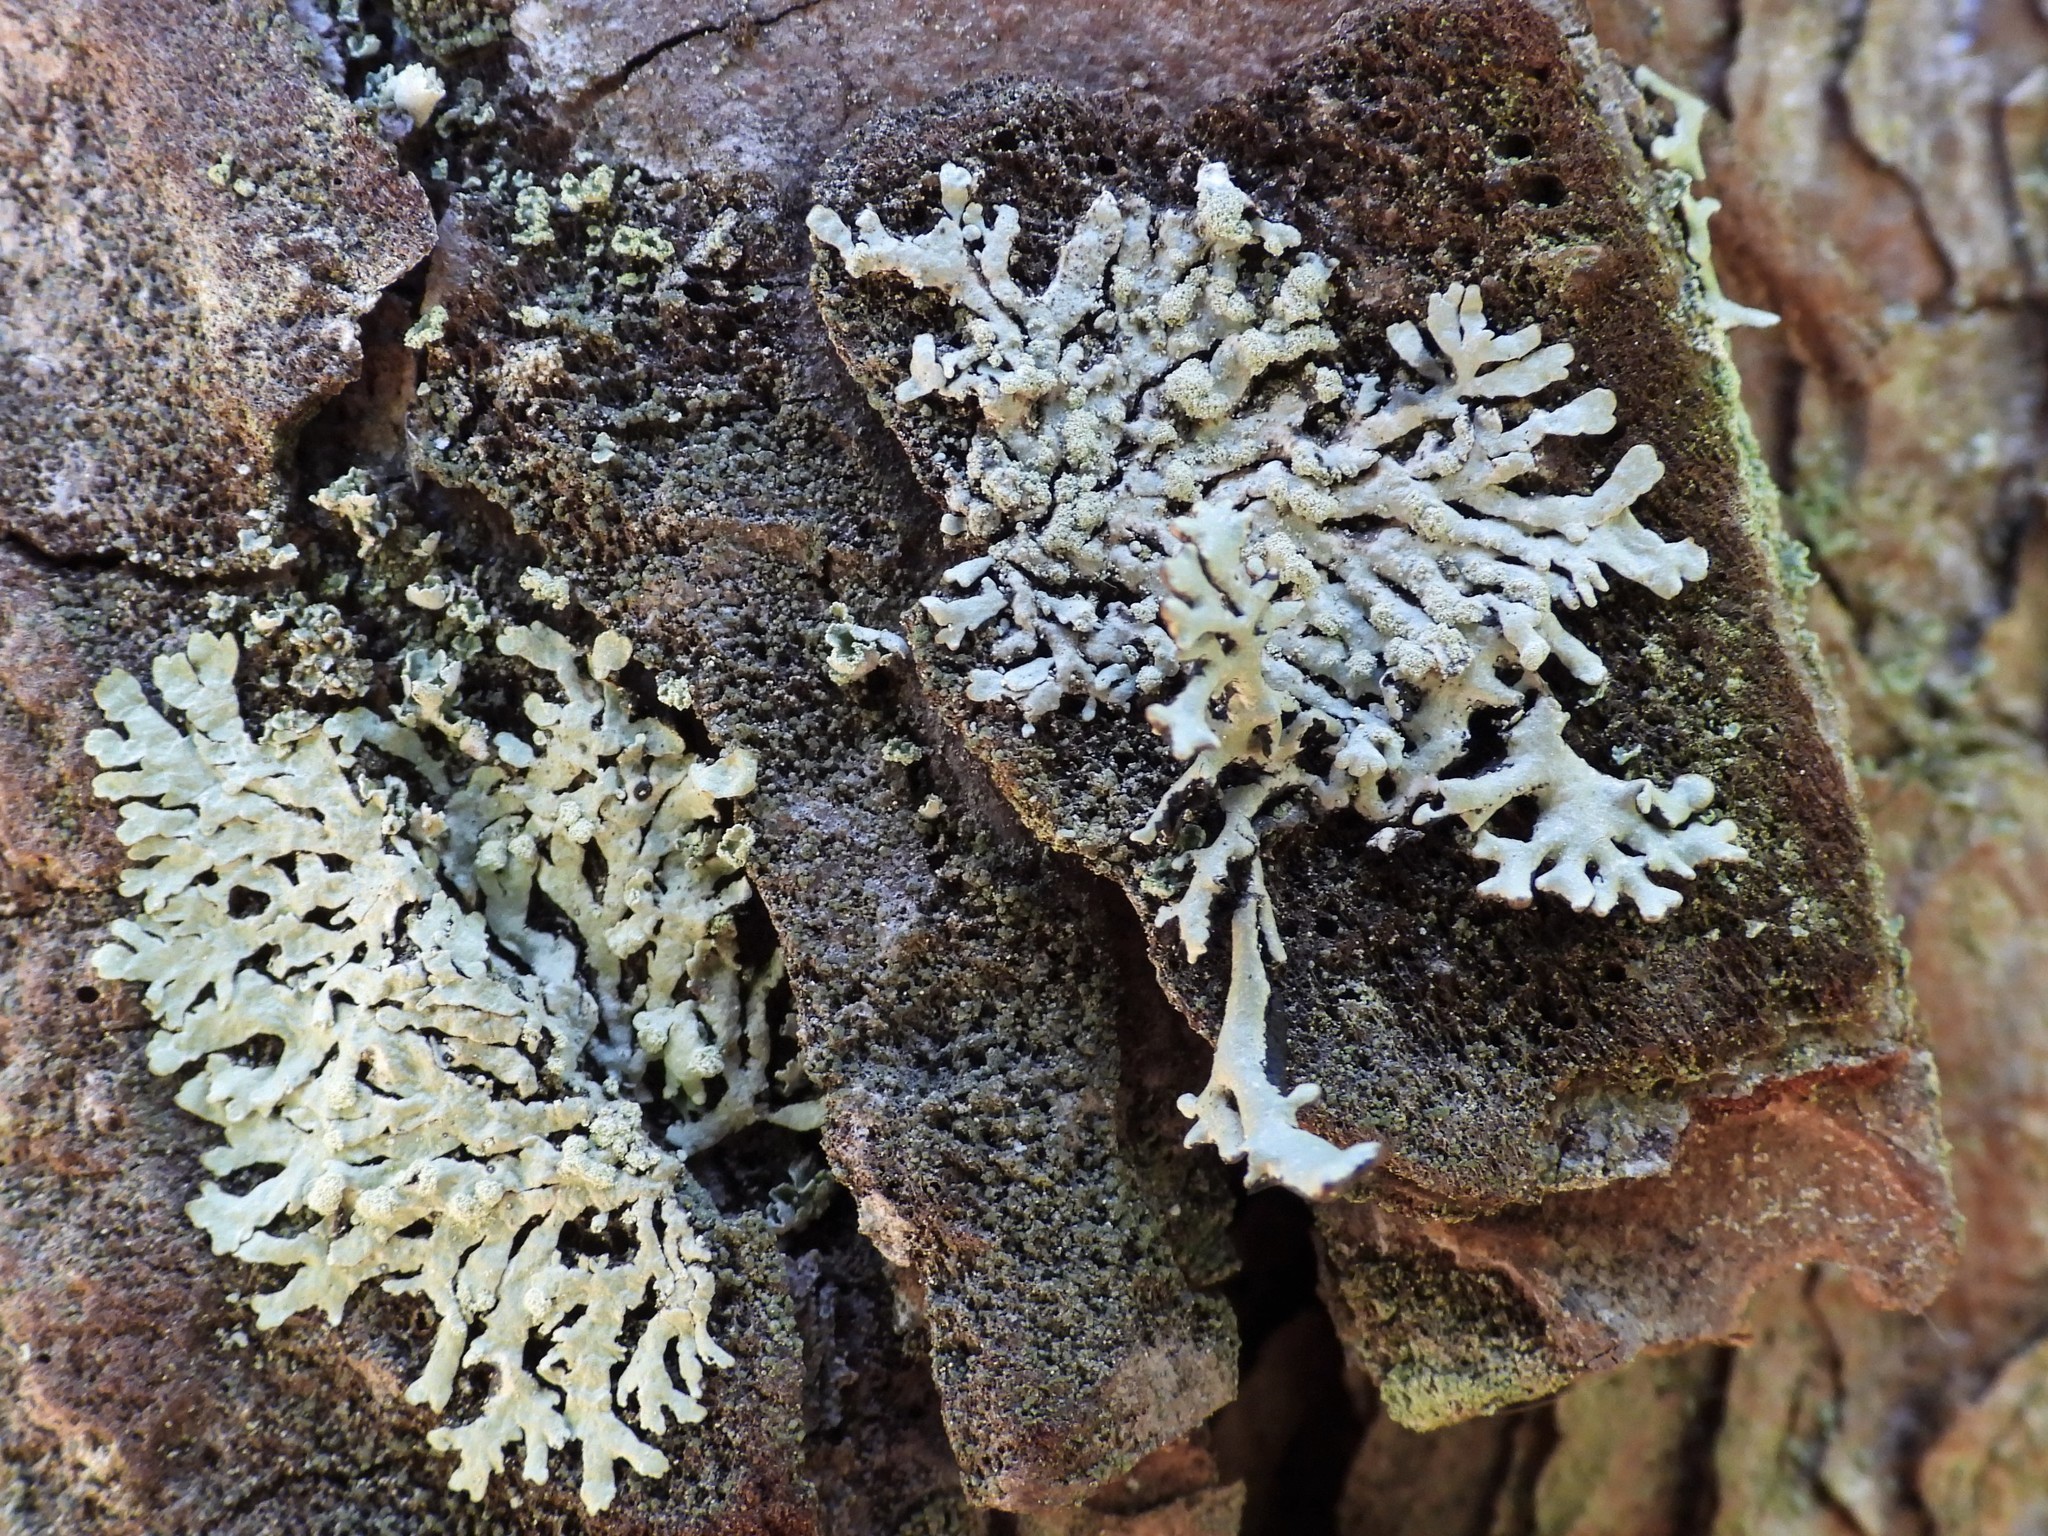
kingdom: Fungi
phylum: Ascomycota
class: Lecanoromycetes
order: Lecanorales
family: Parmeliaceae
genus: Parmeliopsis
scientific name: Parmeliopsis hyperopta
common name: Grey starburst lichen
